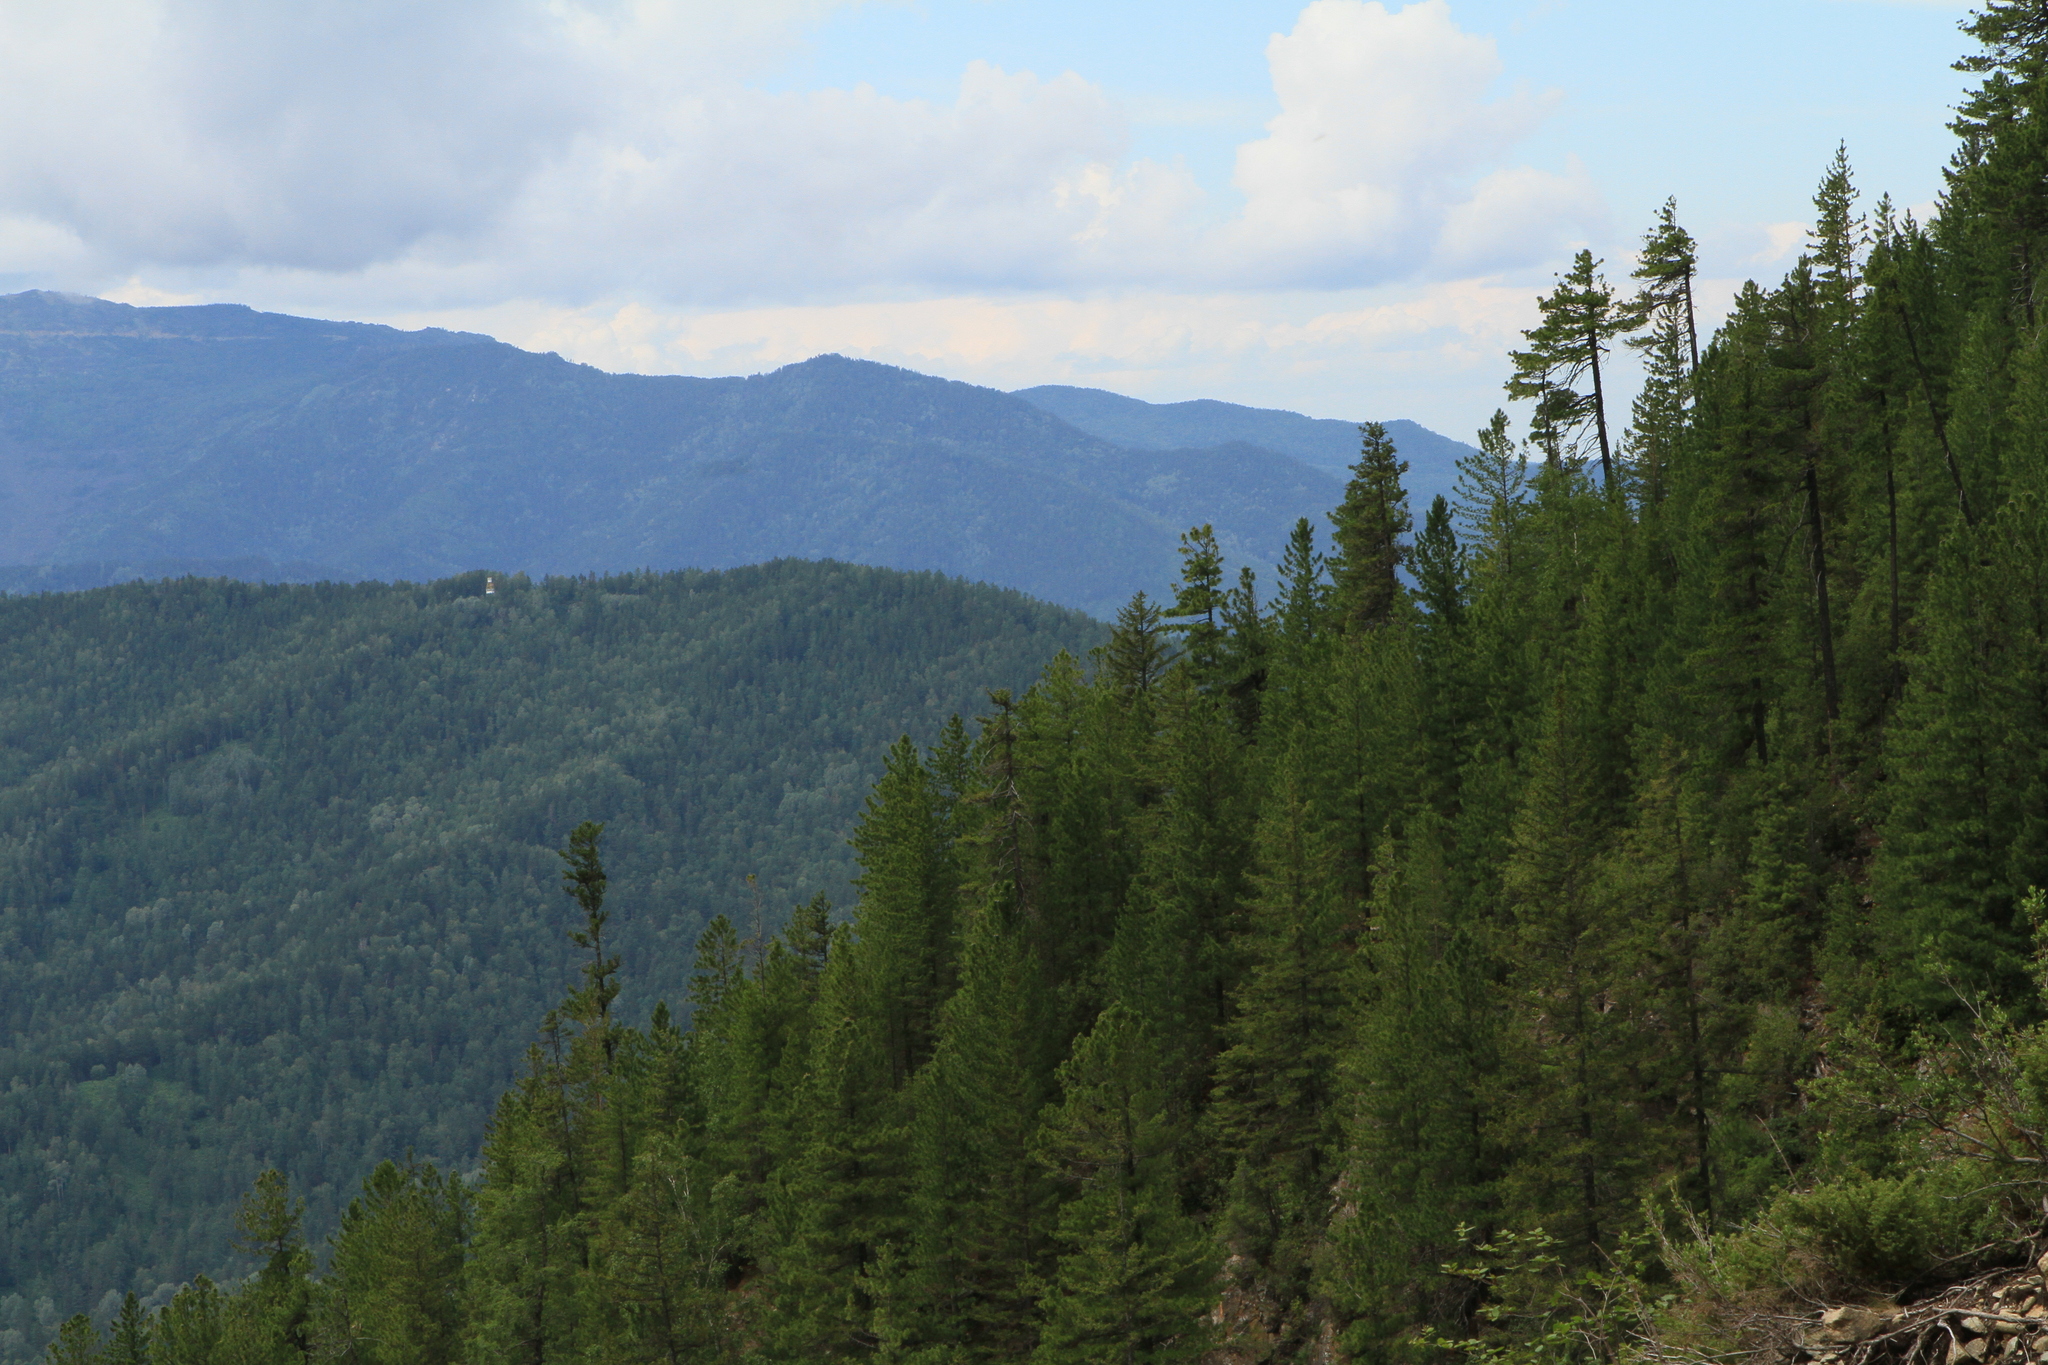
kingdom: Plantae
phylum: Tracheophyta
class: Pinopsida
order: Pinales
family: Pinaceae
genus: Pinus
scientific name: Pinus sibirica
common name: Siberian pine
